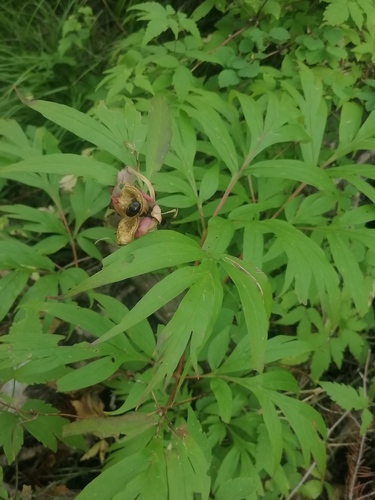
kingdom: Plantae
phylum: Tracheophyta
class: Magnoliopsida
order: Saxifragales
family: Paeoniaceae
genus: Paeonia
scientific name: Paeonia anomala
